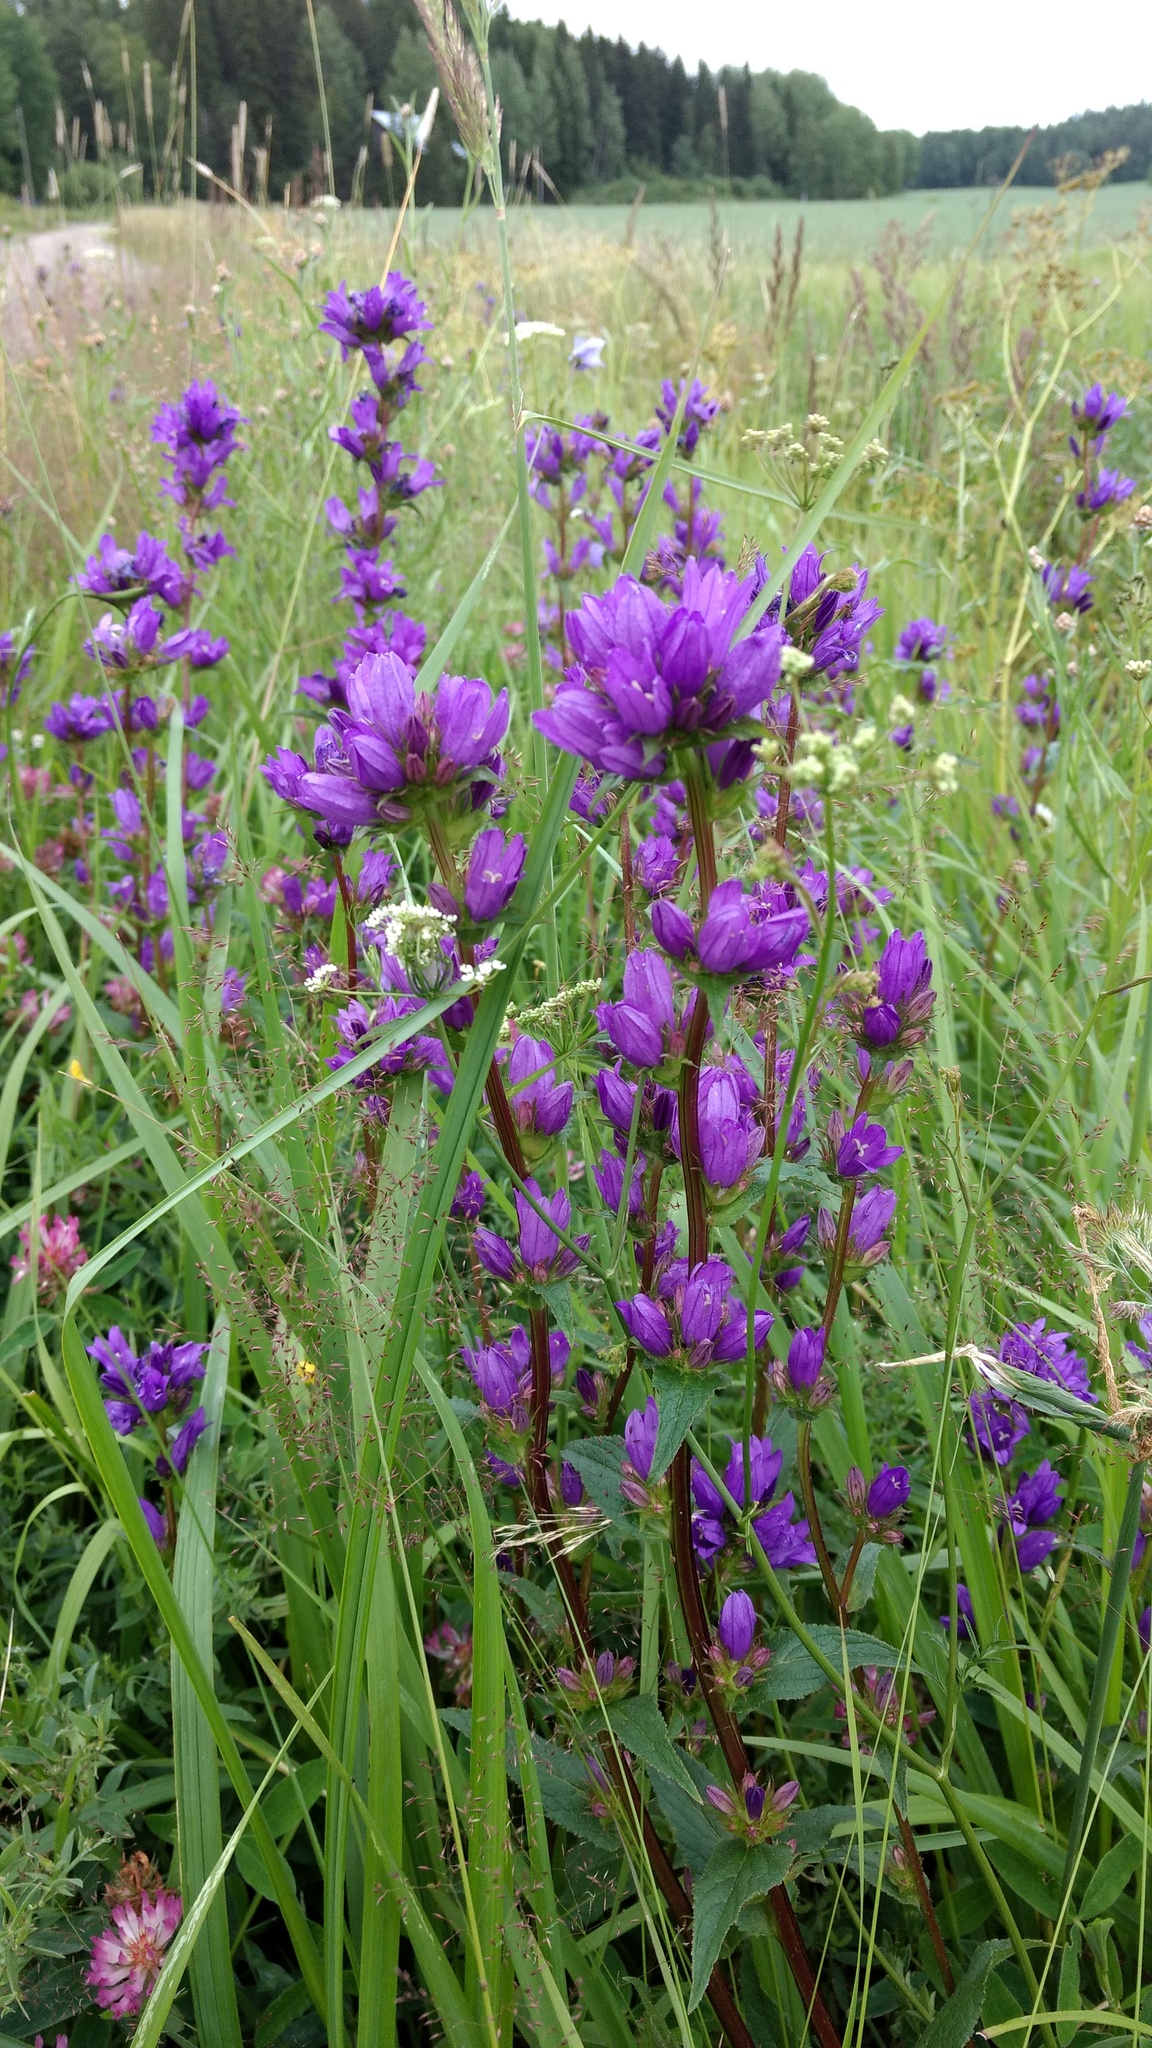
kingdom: Plantae
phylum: Tracheophyta
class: Magnoliopsida
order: Asterales
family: Campanulaceae
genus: Campanula
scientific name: Campanula glomerata
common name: Clustered bellflower
